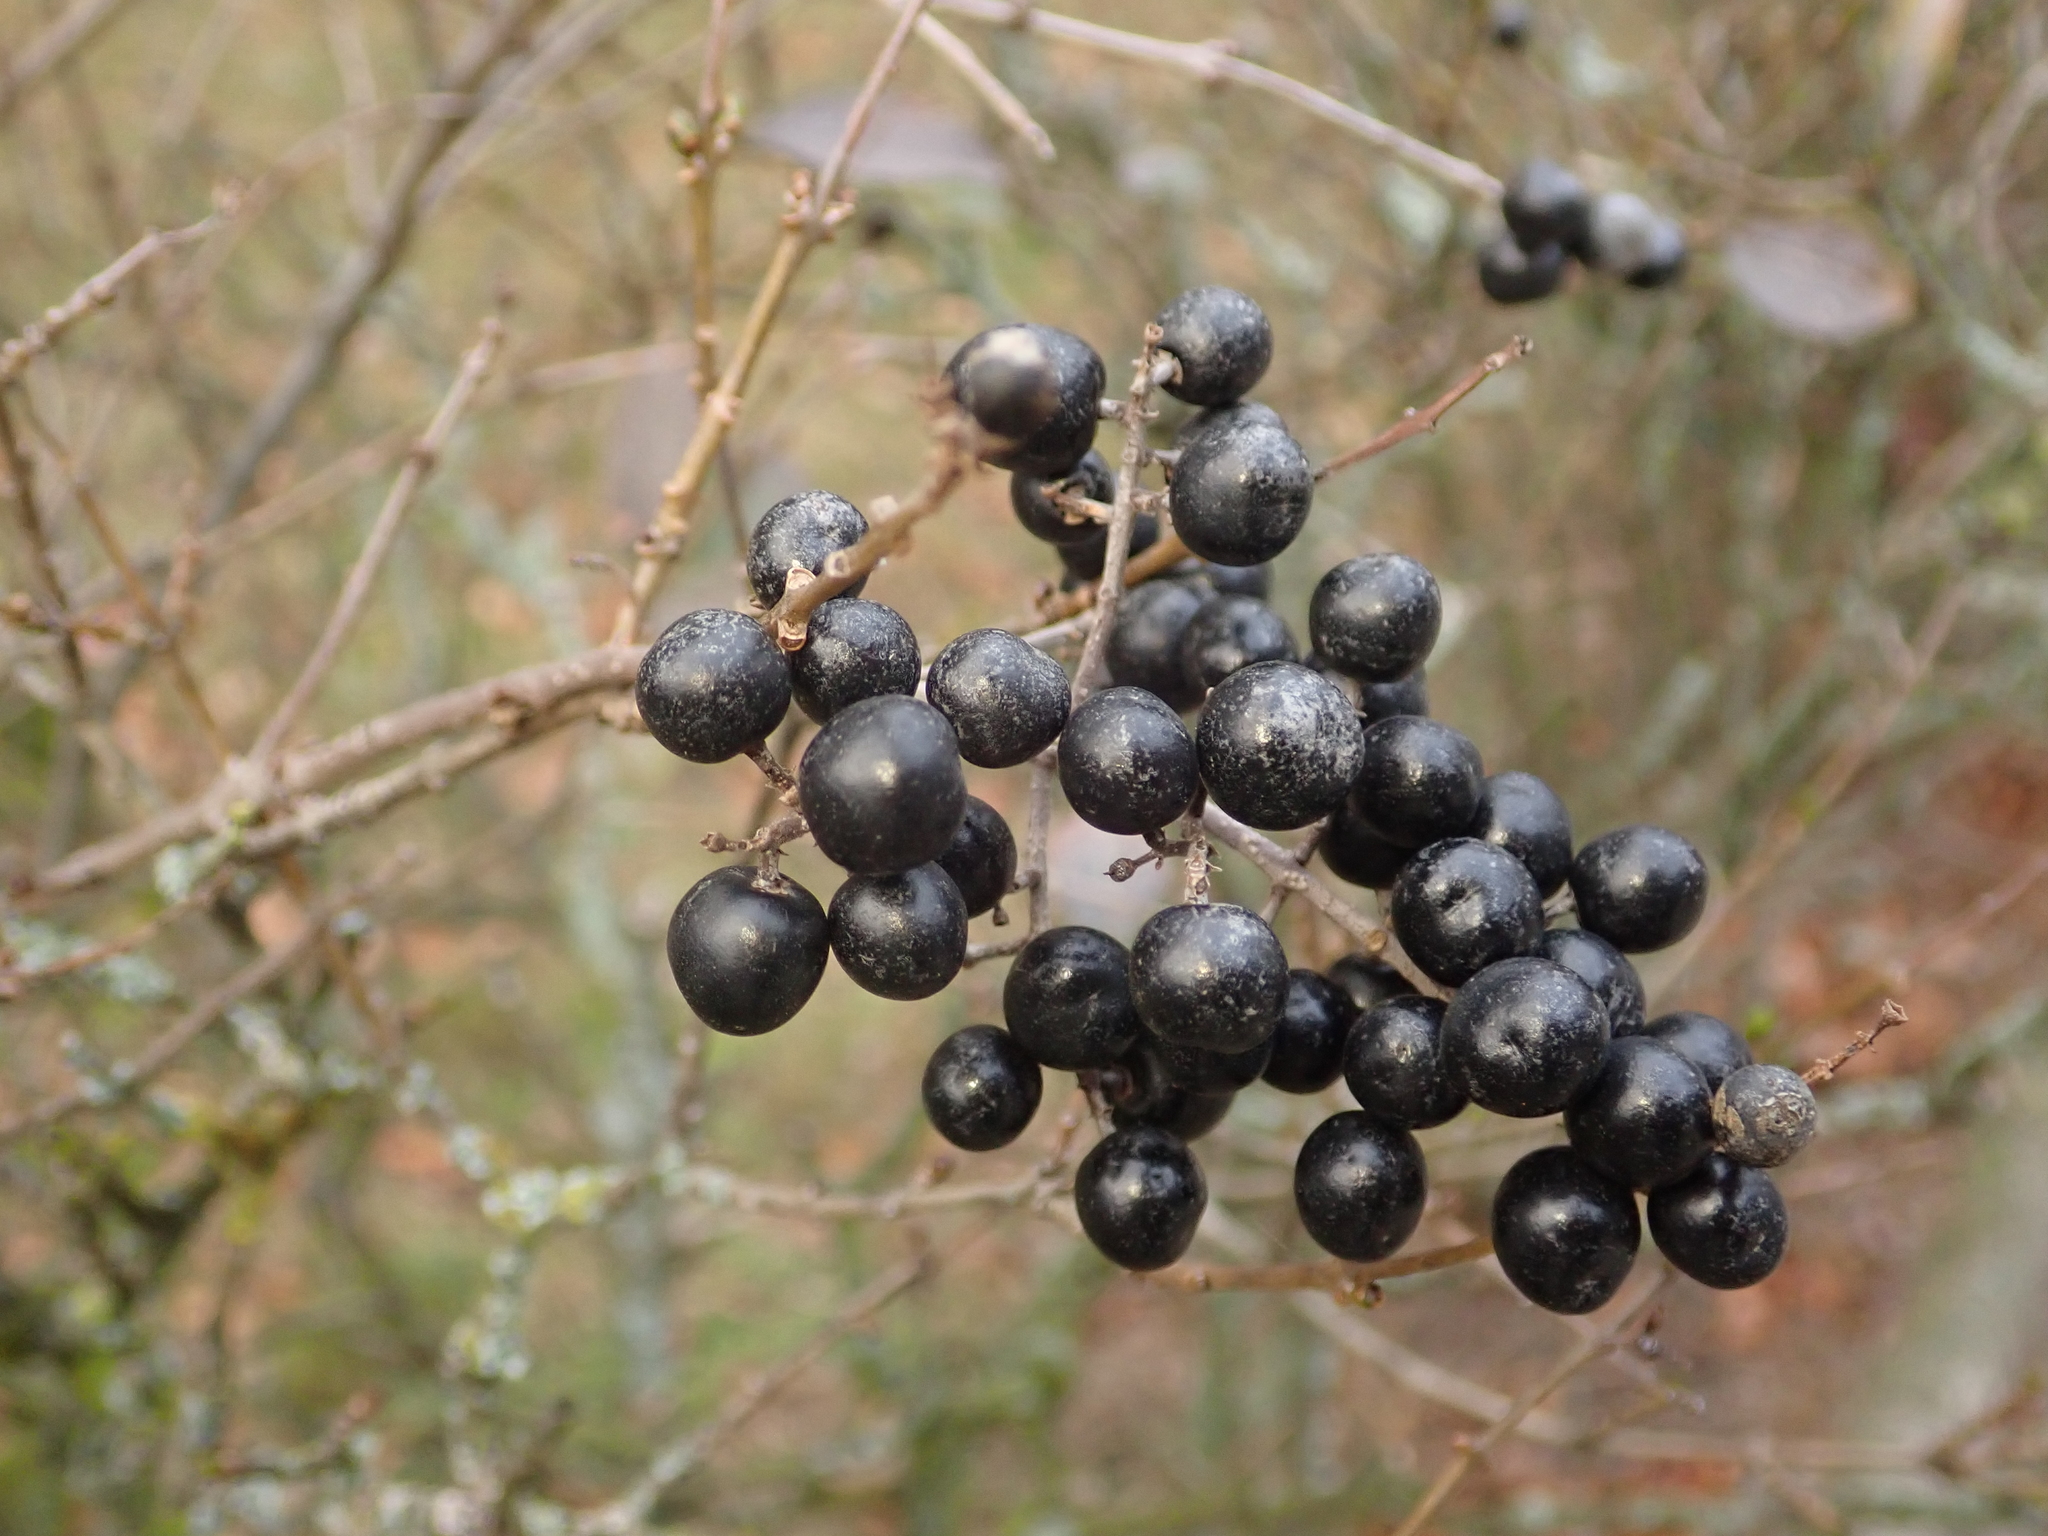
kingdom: Plantae
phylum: Tracheophyta
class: Magnoliopsida
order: Lamiales
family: Oleaceae
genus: Ligustrum
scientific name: Ligustrum vulgare
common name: Wild privet
